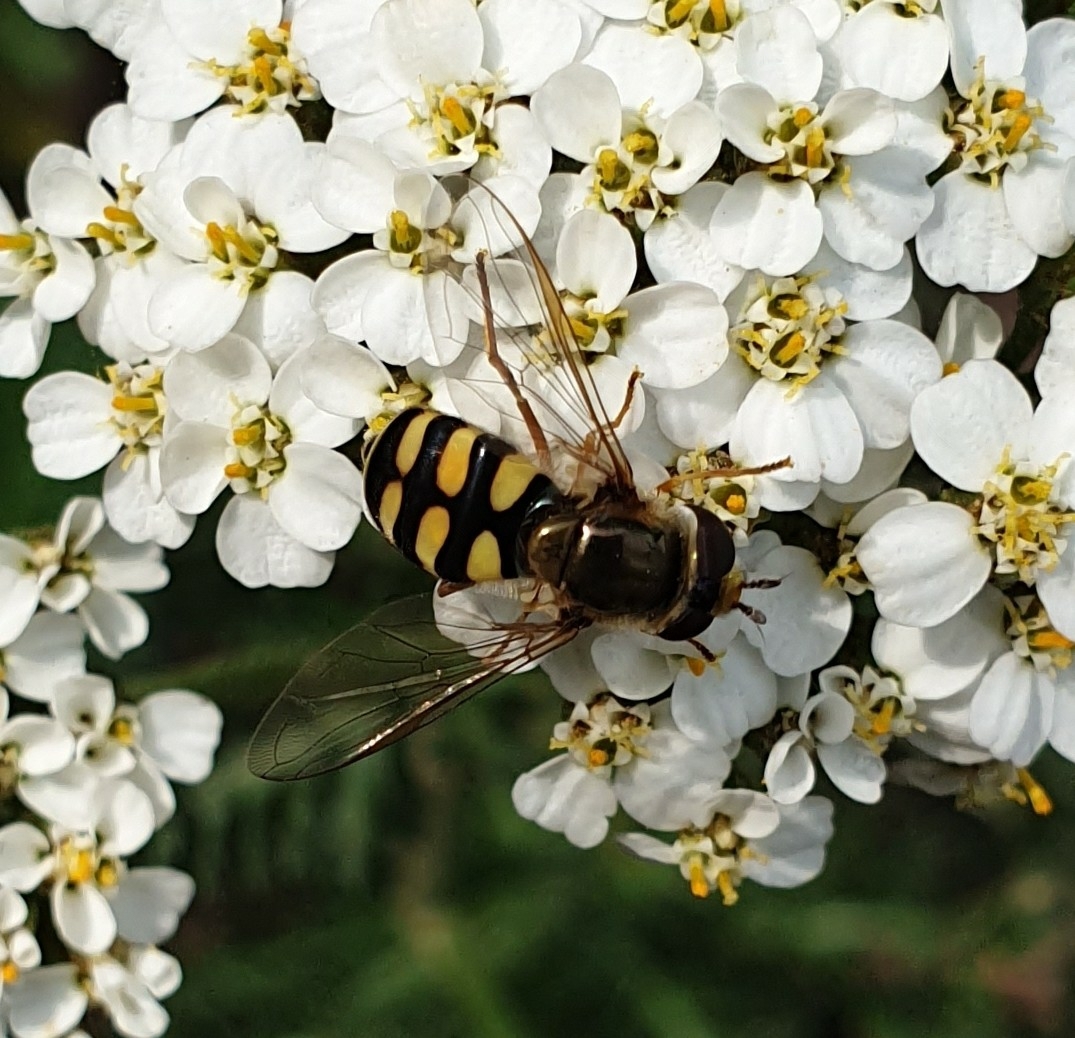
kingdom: Animalia
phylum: Arthropoda
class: Insecta
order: Diptera
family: Syrphidae
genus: Eupeodes
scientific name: Eupeodes corollae
